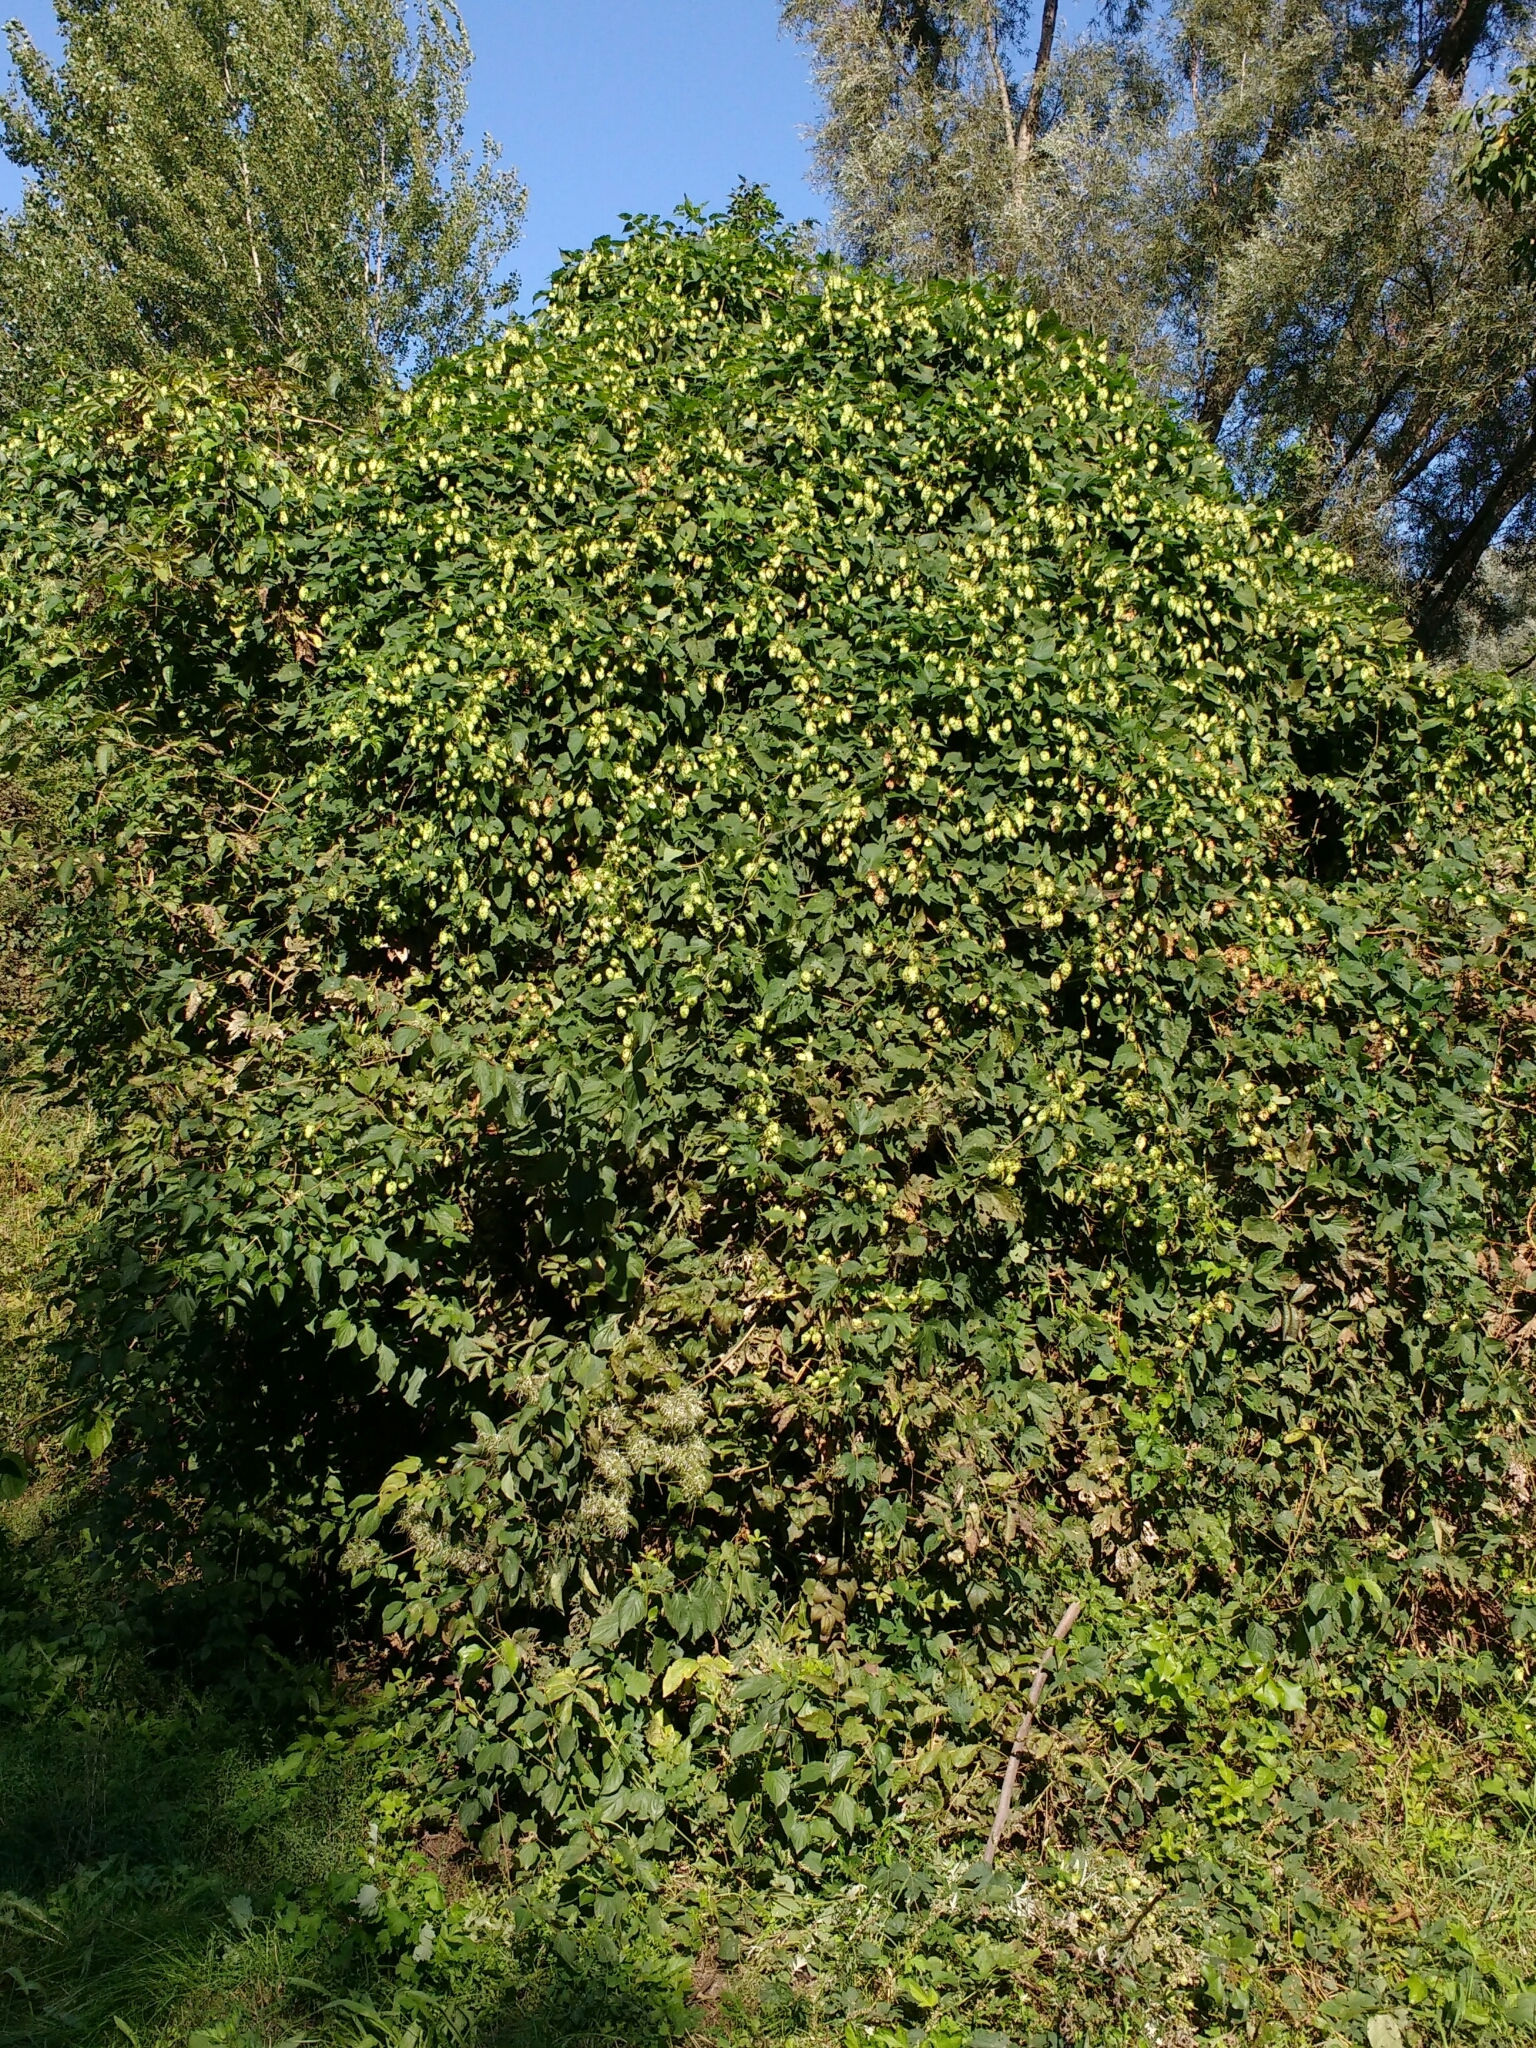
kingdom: Plantae
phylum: Tracheophyta
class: Magnoliopsida
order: Rosales
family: Cannabaceae
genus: Humulus
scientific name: Humulus lupulus
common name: Hop
